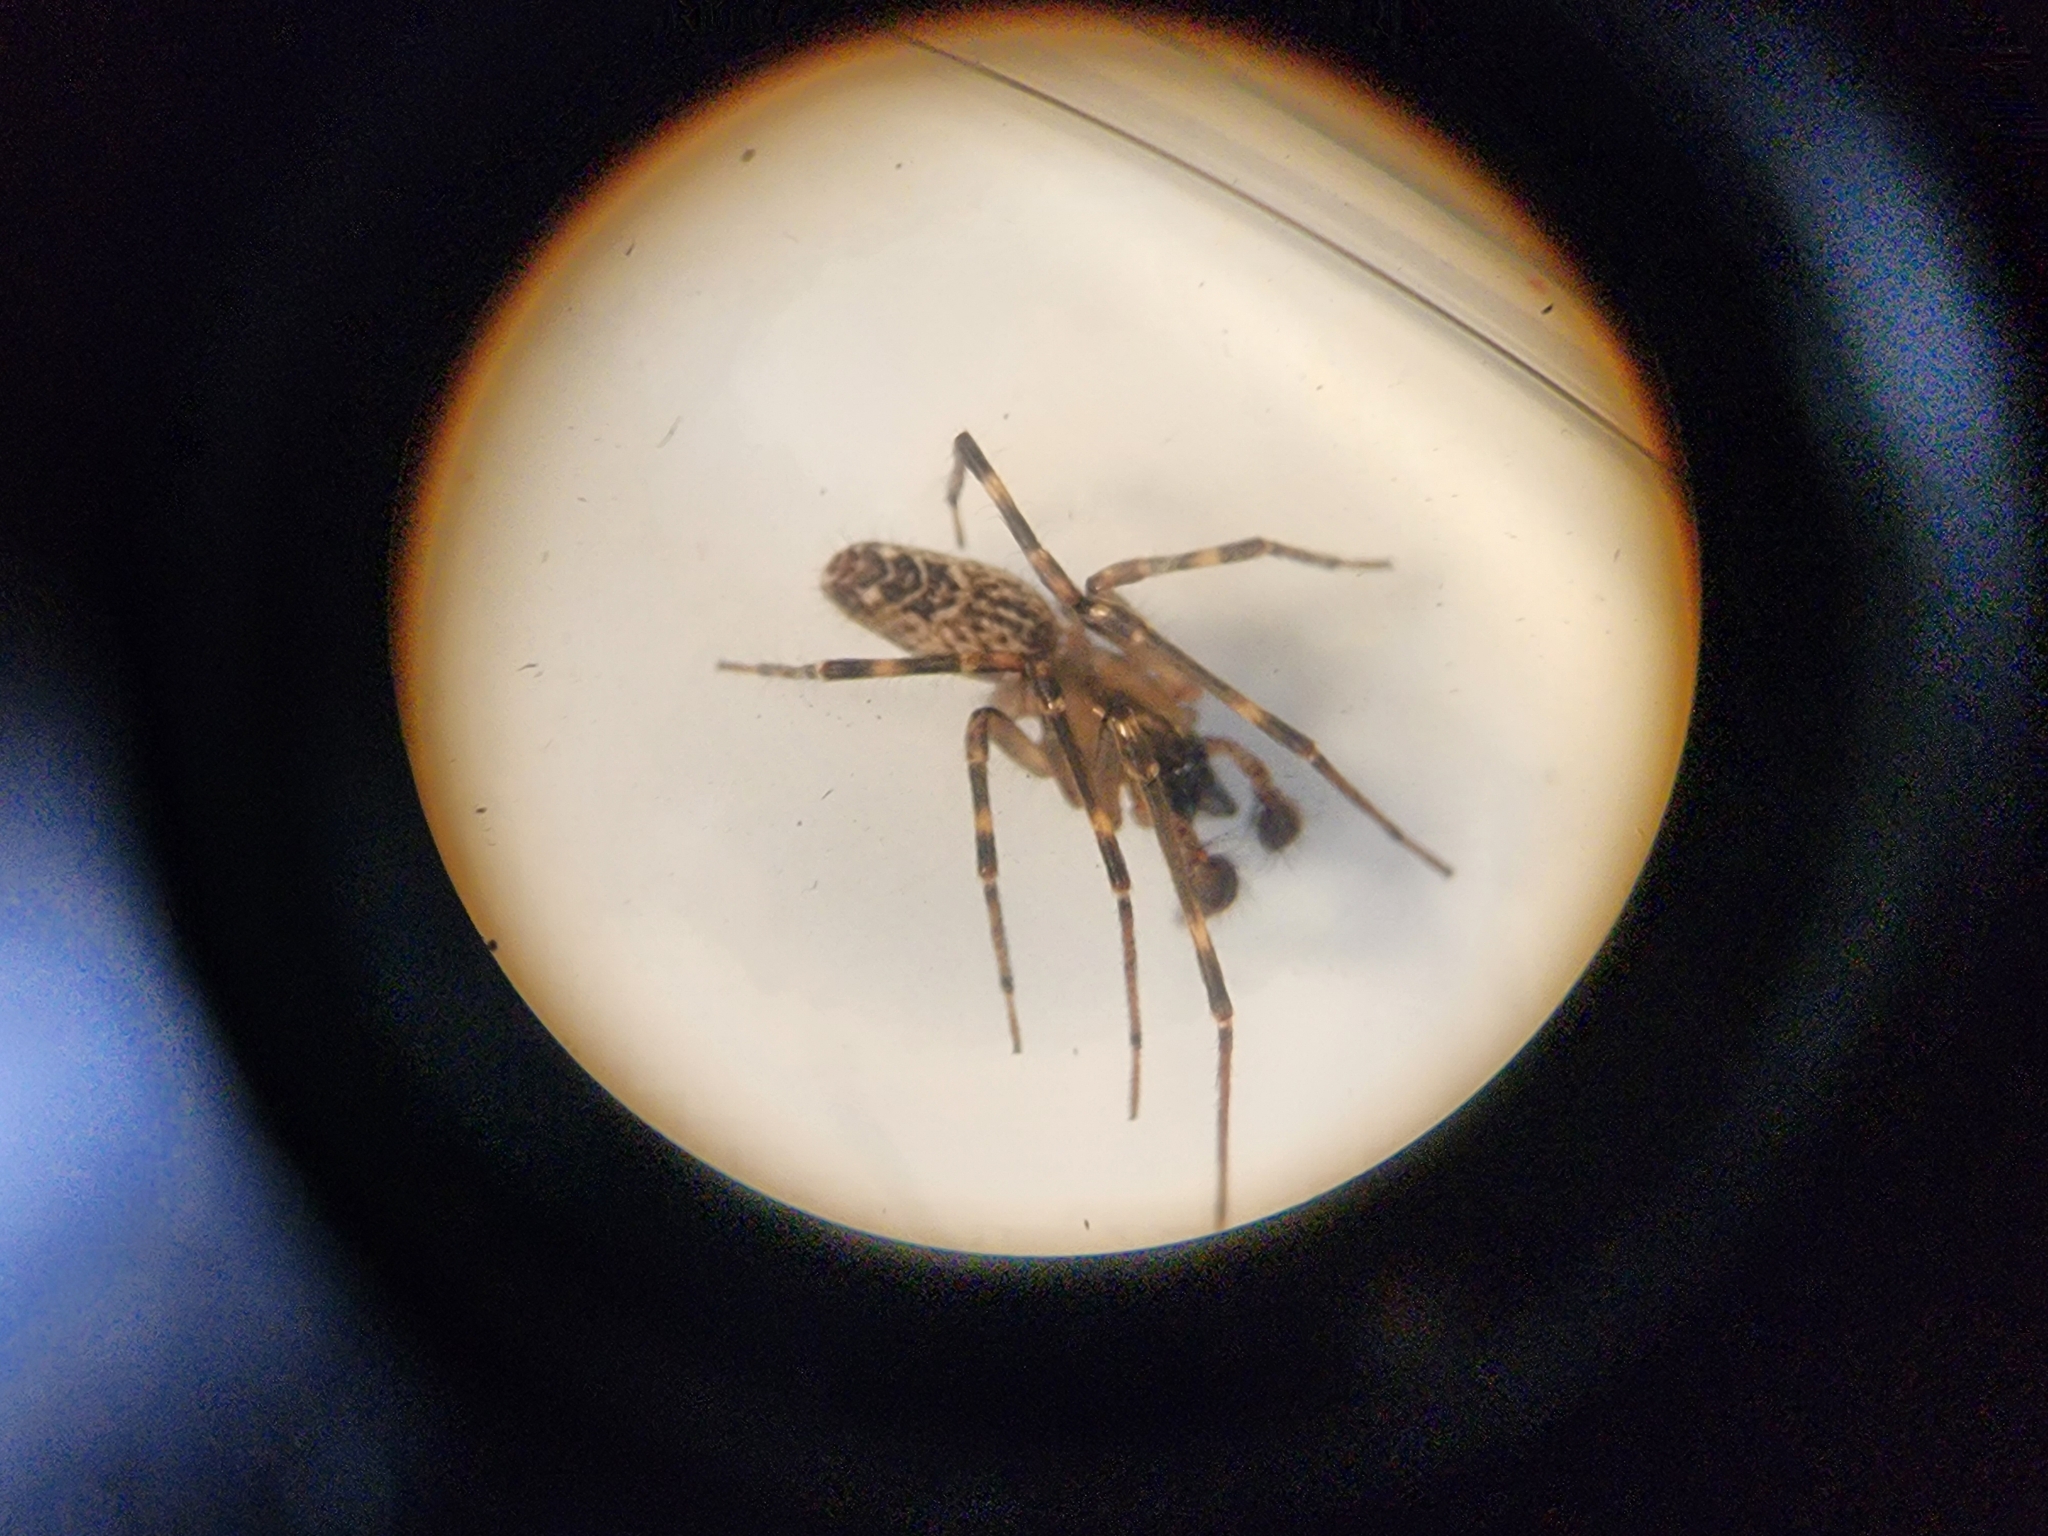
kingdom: Animalia
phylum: Arthropoda
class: Arachnida
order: Araneae
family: Desidae
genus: Notomatachia
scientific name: Notomatachia hirsuta
